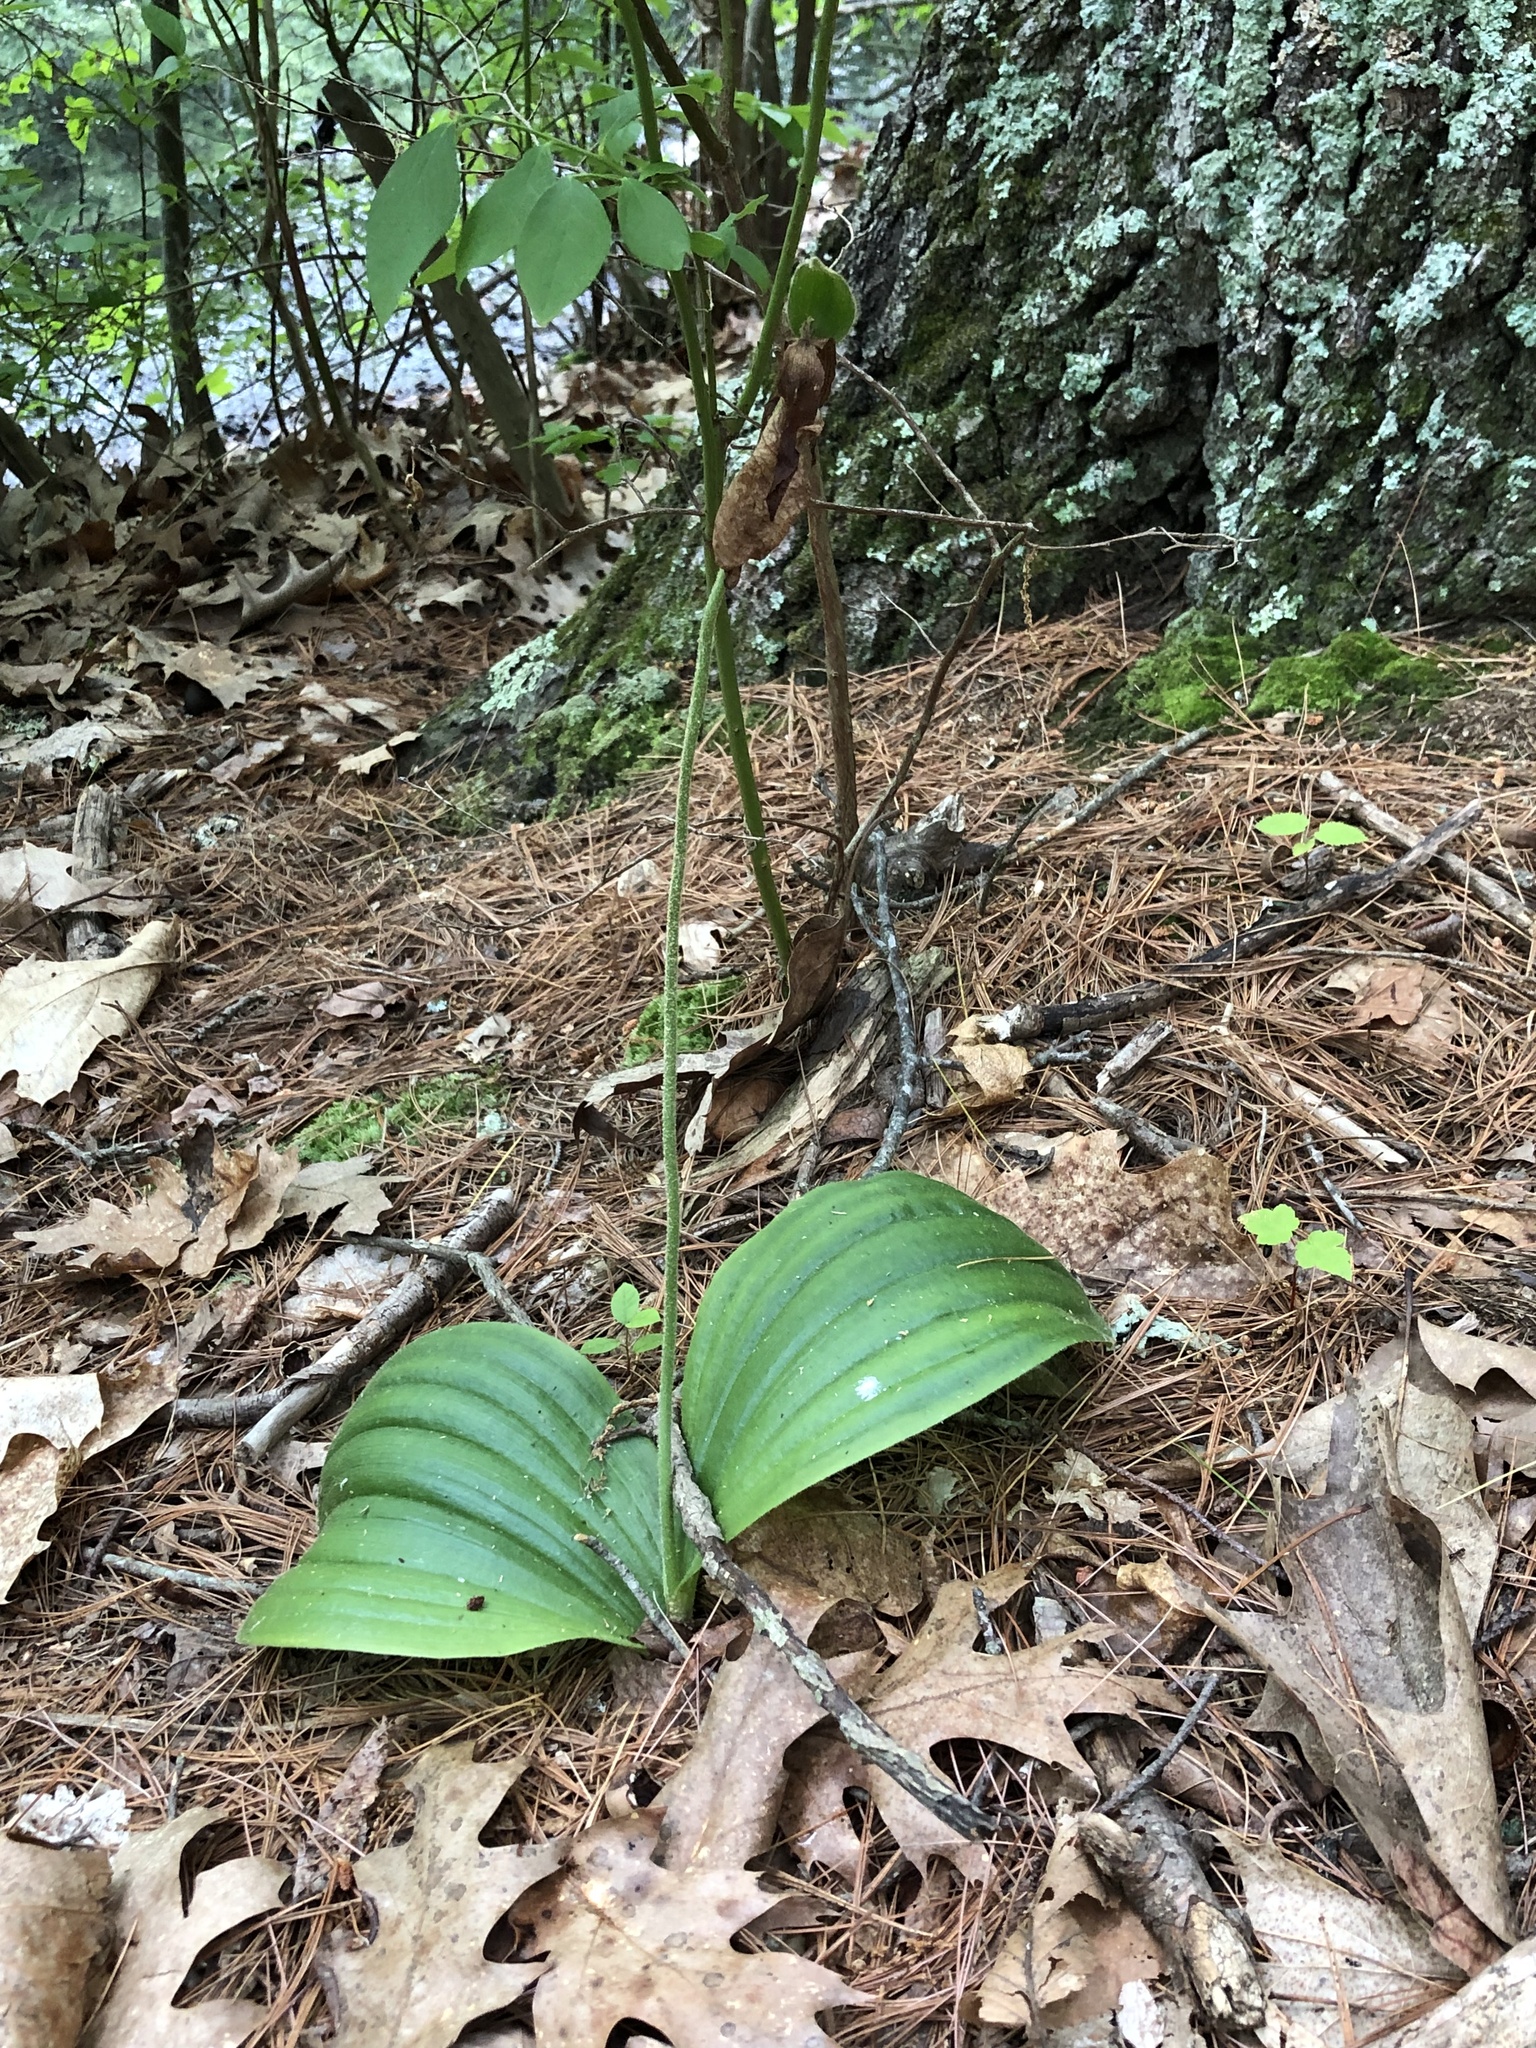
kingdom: Plantae
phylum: Tracheophyta
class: Liliopsida
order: Asparagales
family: Orchidaceae
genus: Cypripedium
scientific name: Cypripedium acaule
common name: Pink lady's-slipper
